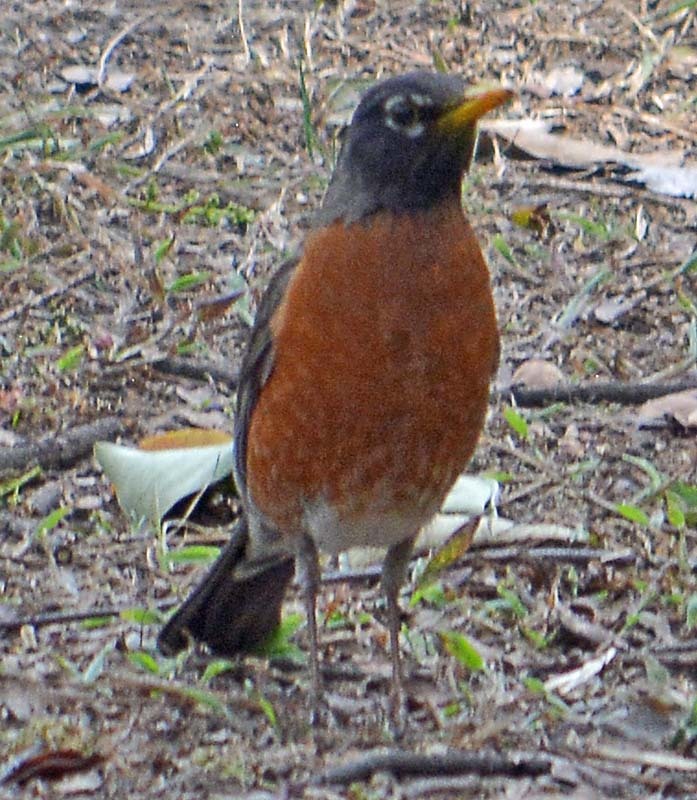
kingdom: Animalia
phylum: Chordata
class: Aves
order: Passeriformes
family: Turdidae
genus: Turdus
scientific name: Turdus migratorius
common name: American robin
